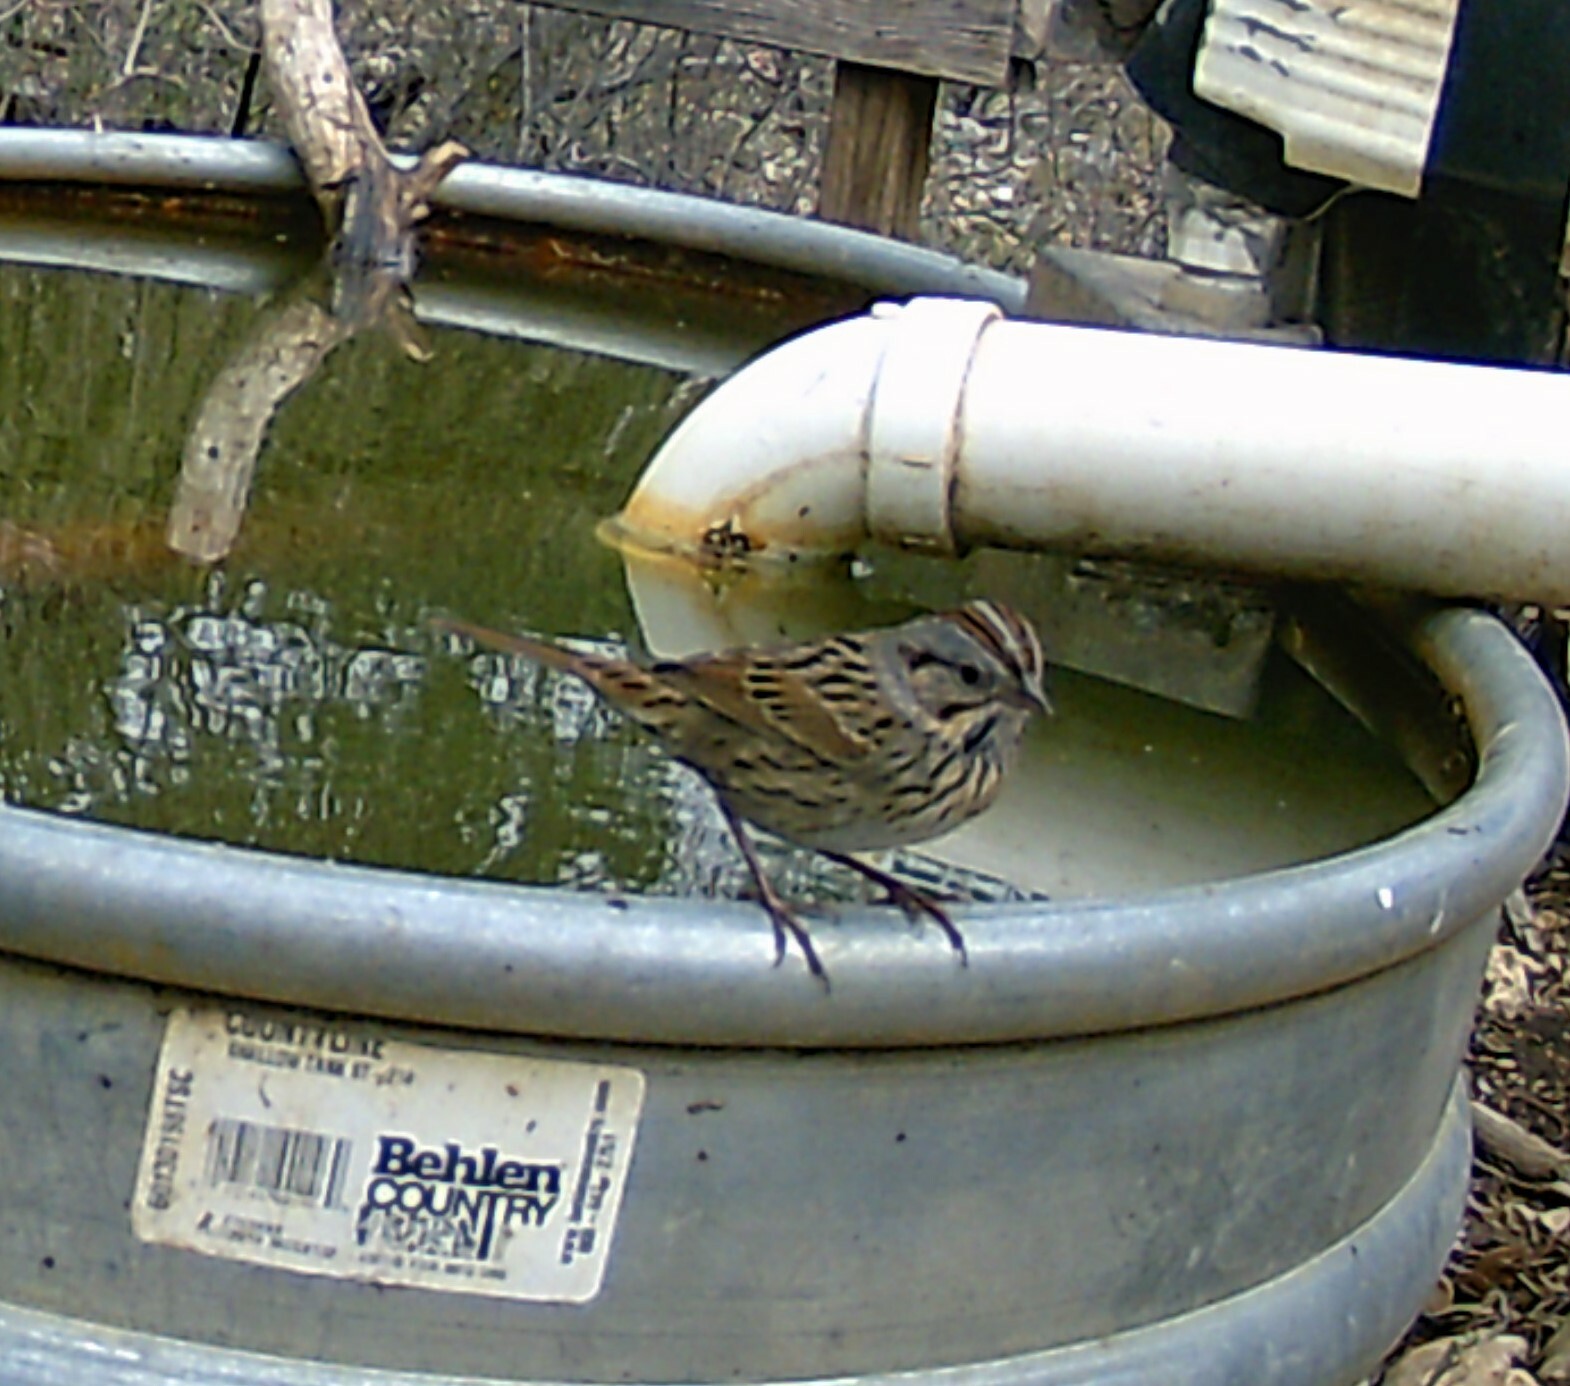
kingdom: Animalia
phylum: Chordata
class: Aves
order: Passeriformes
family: Passerellidae
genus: Melospiza
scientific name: Melospiza lincolnii
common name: Lincoln's sparrow
